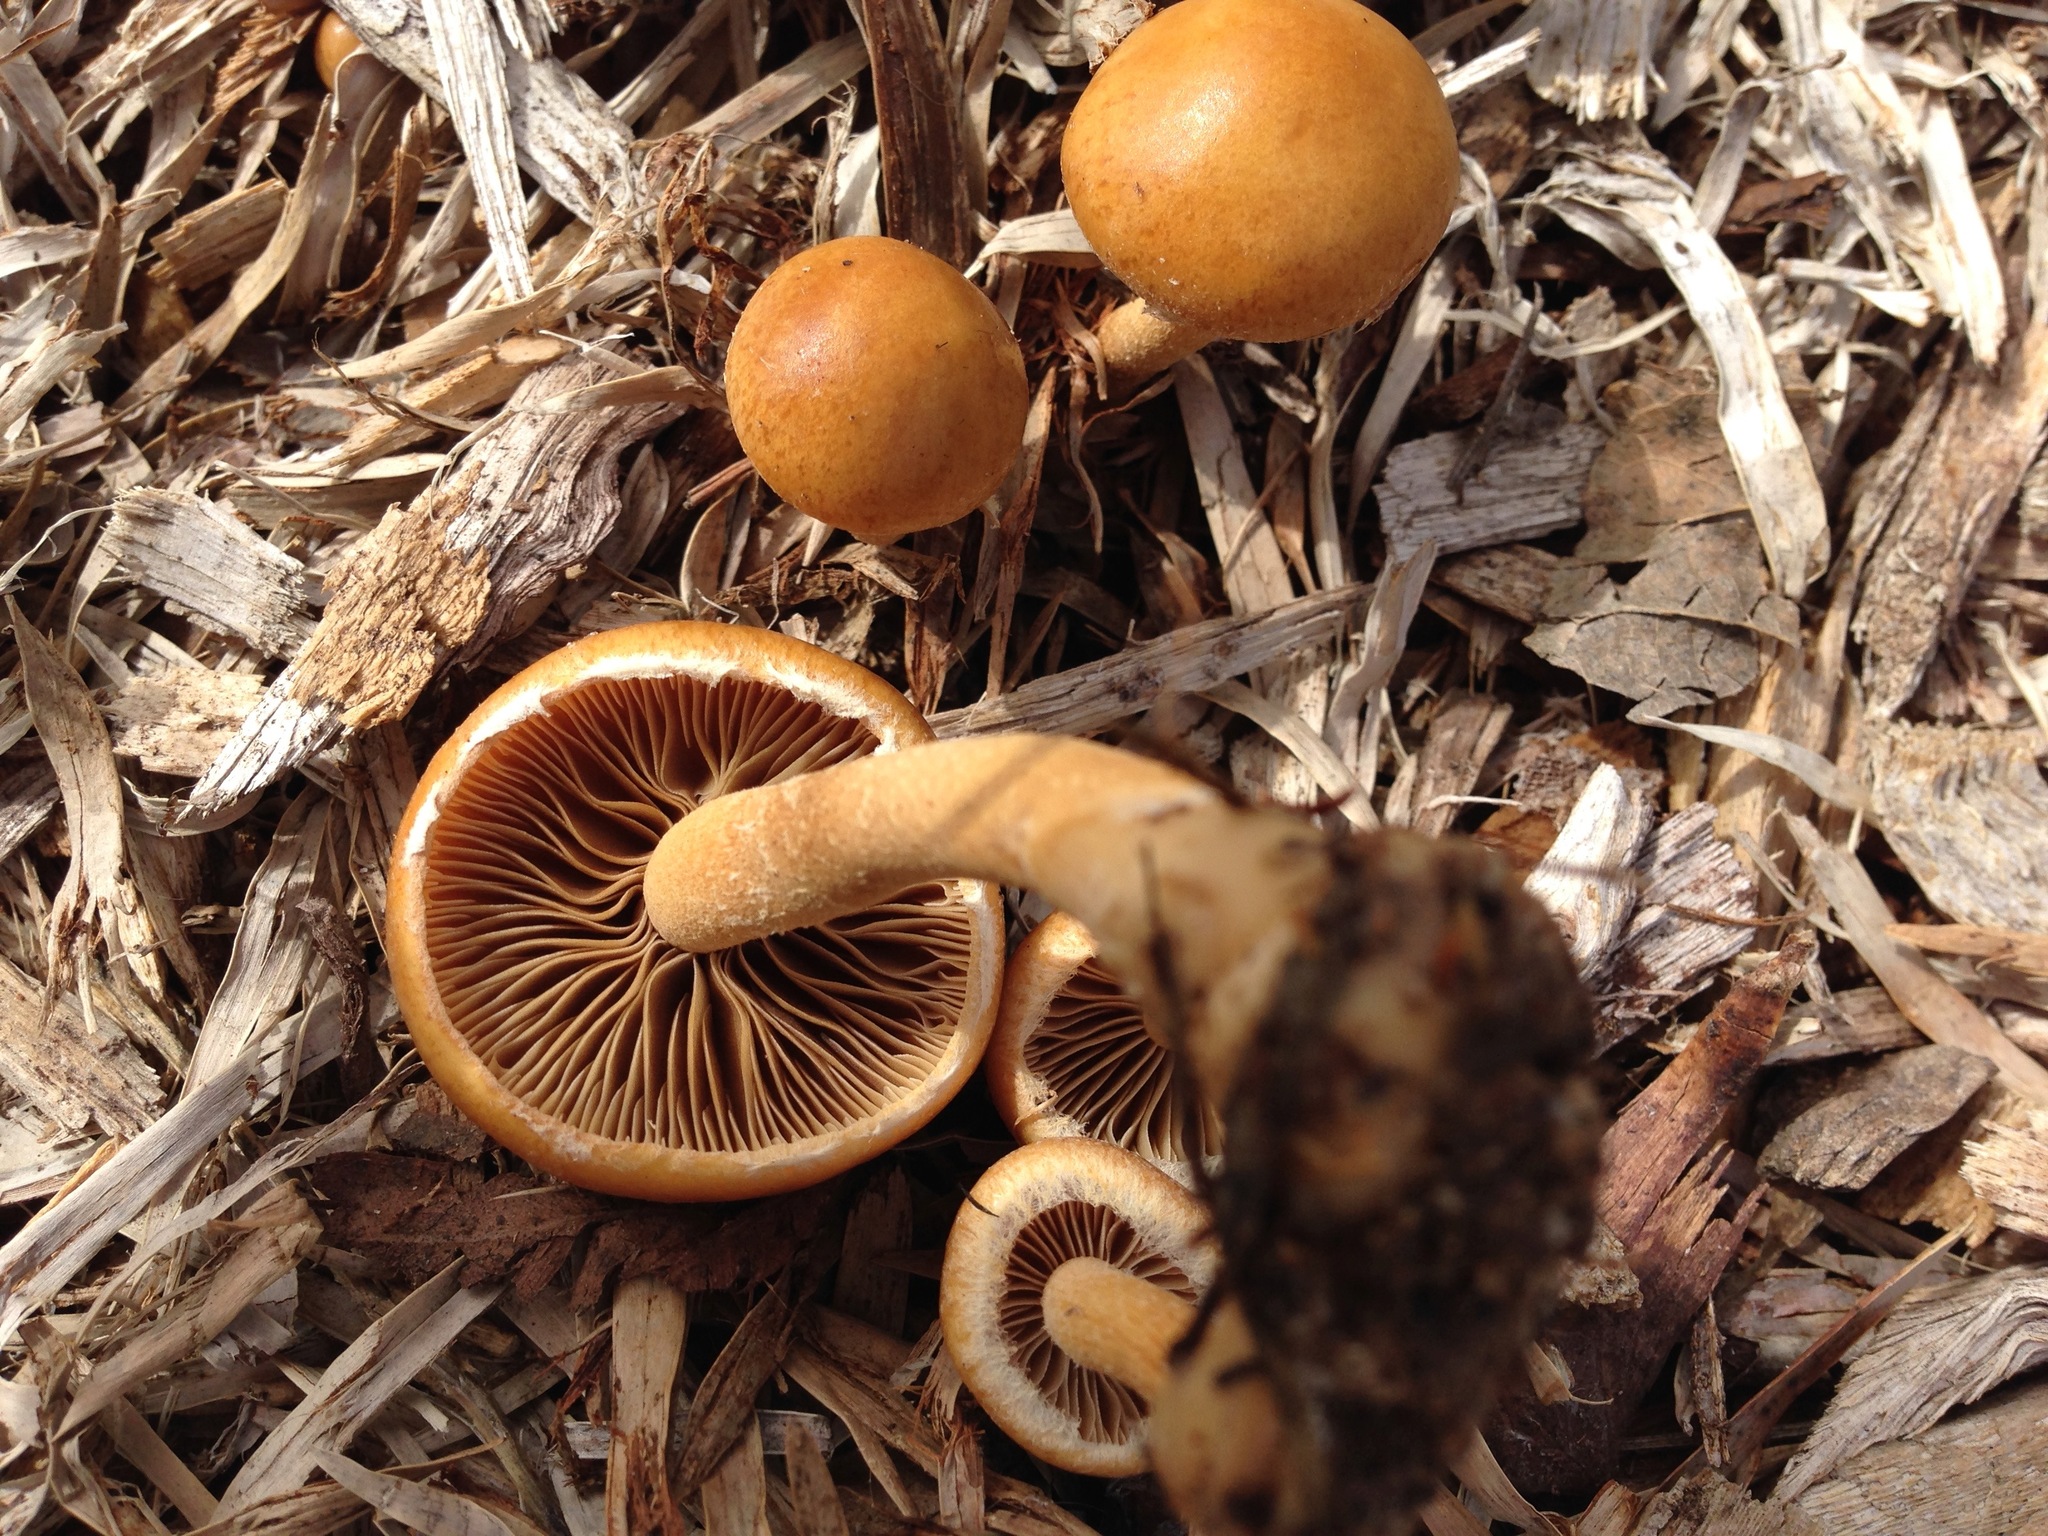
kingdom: Fungi
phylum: Basidiomycota
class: Agaricomycetes
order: Agaricales
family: Strophariaceae
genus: Agrocybe
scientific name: Agrocybe pediades
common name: Common fieldcap
